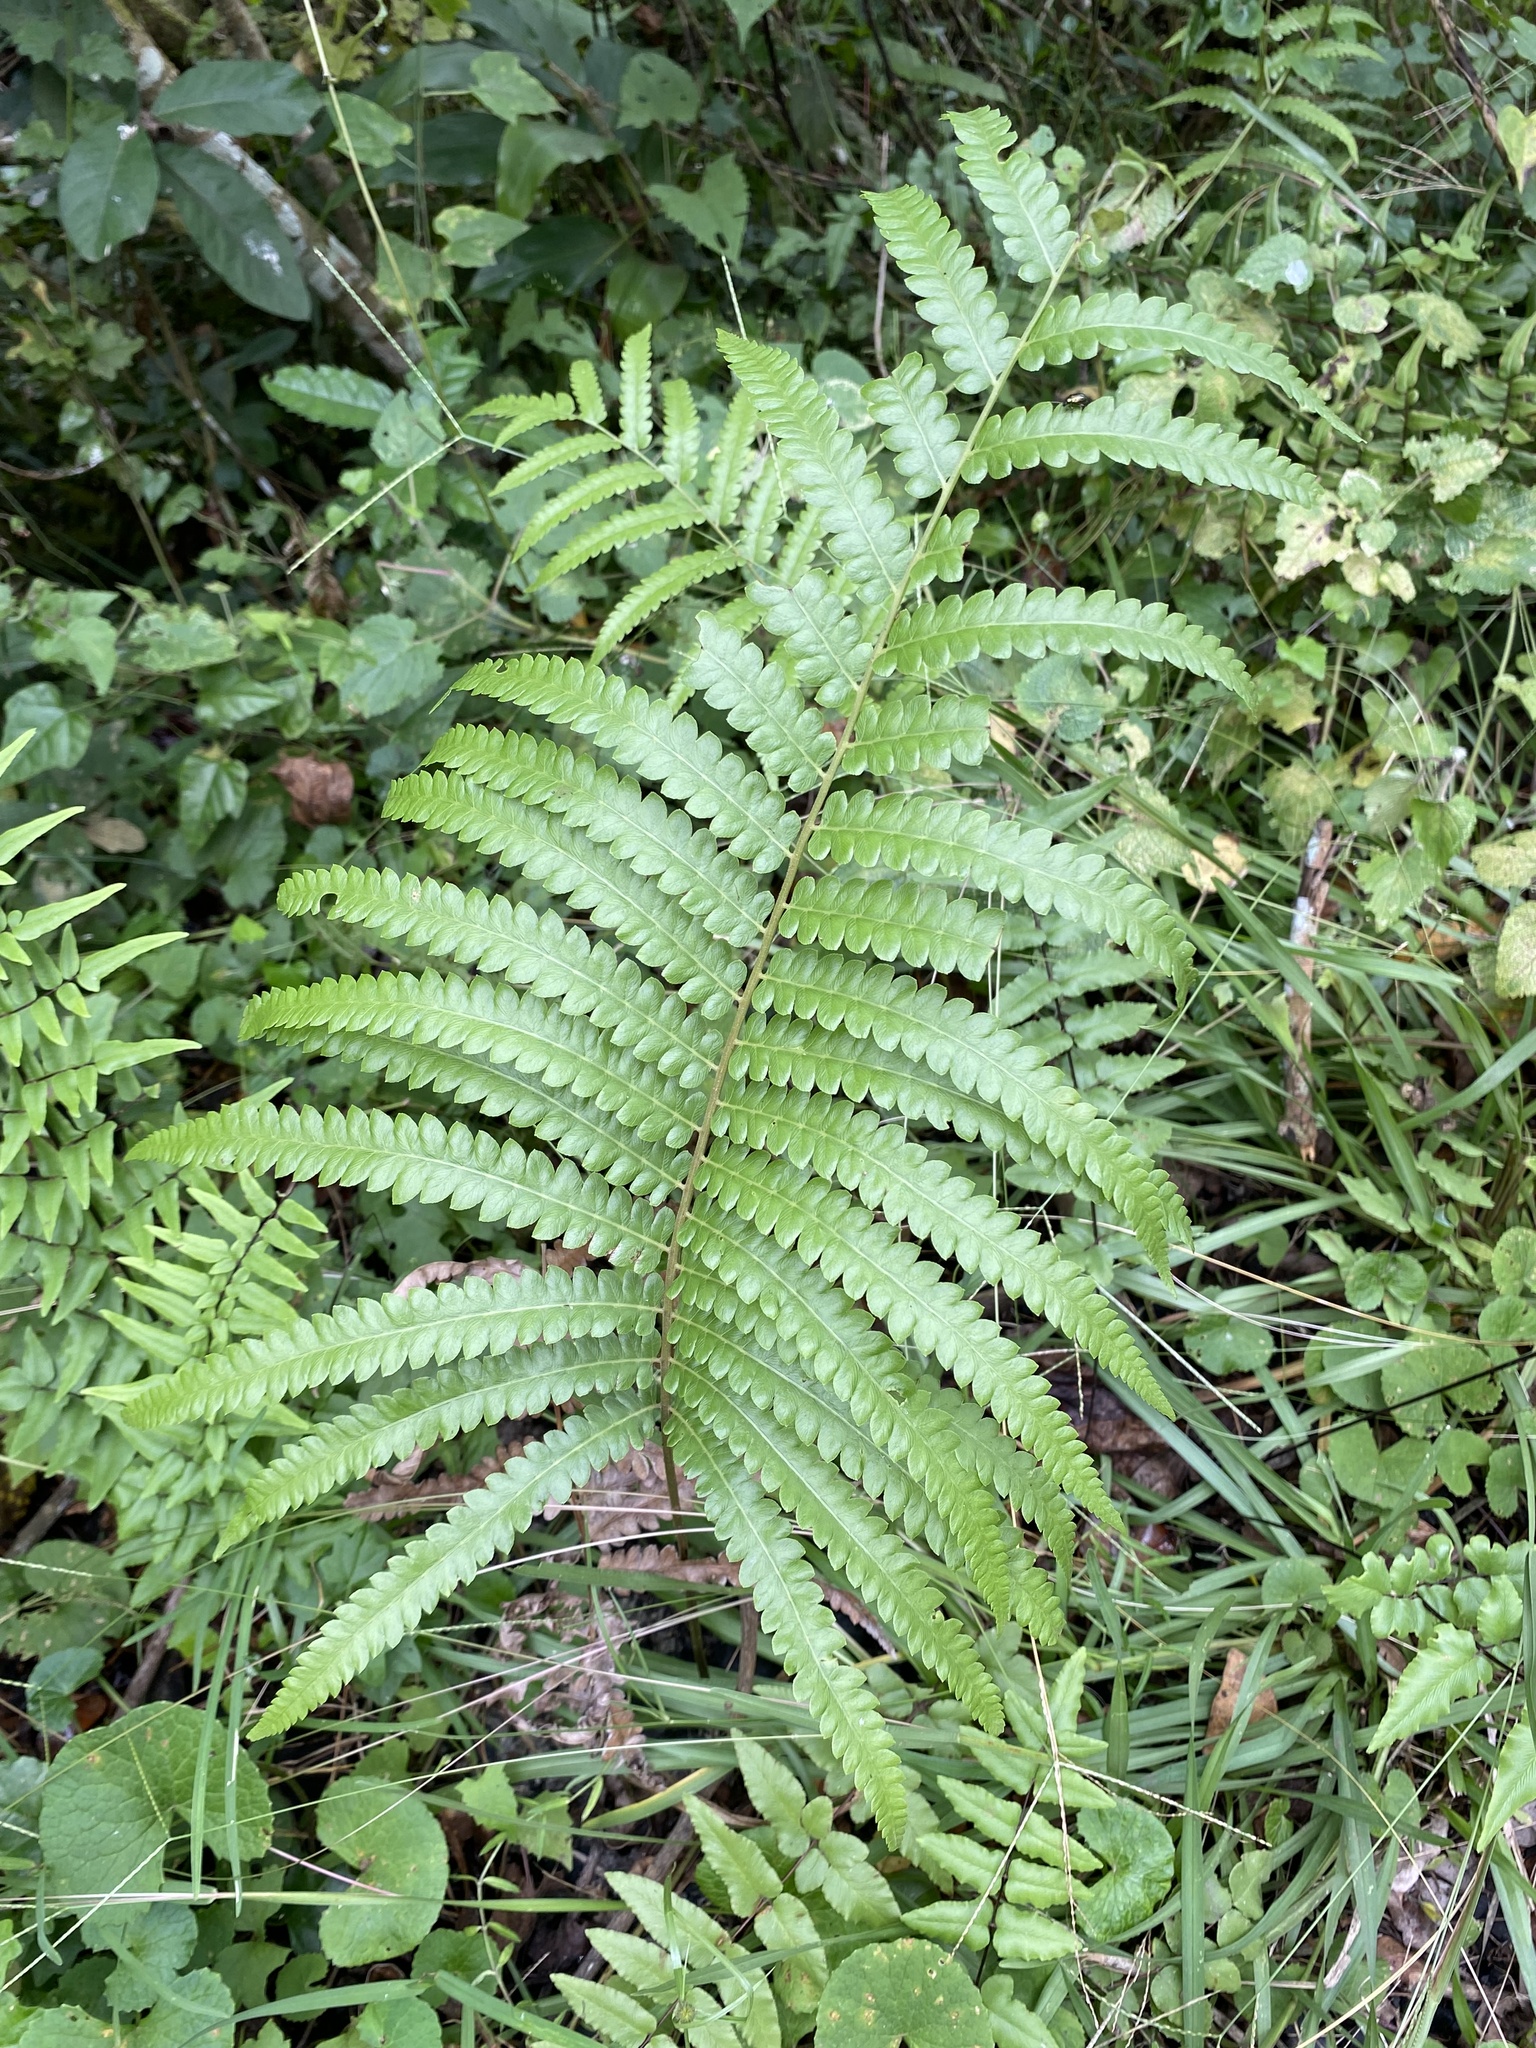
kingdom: Plantae
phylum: Tracheophyta
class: Polypodiopsida
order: Polypodiales
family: Thelypteridaceae
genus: Cyclosorus
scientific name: Cyclosorus interruptus
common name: Neke fern
